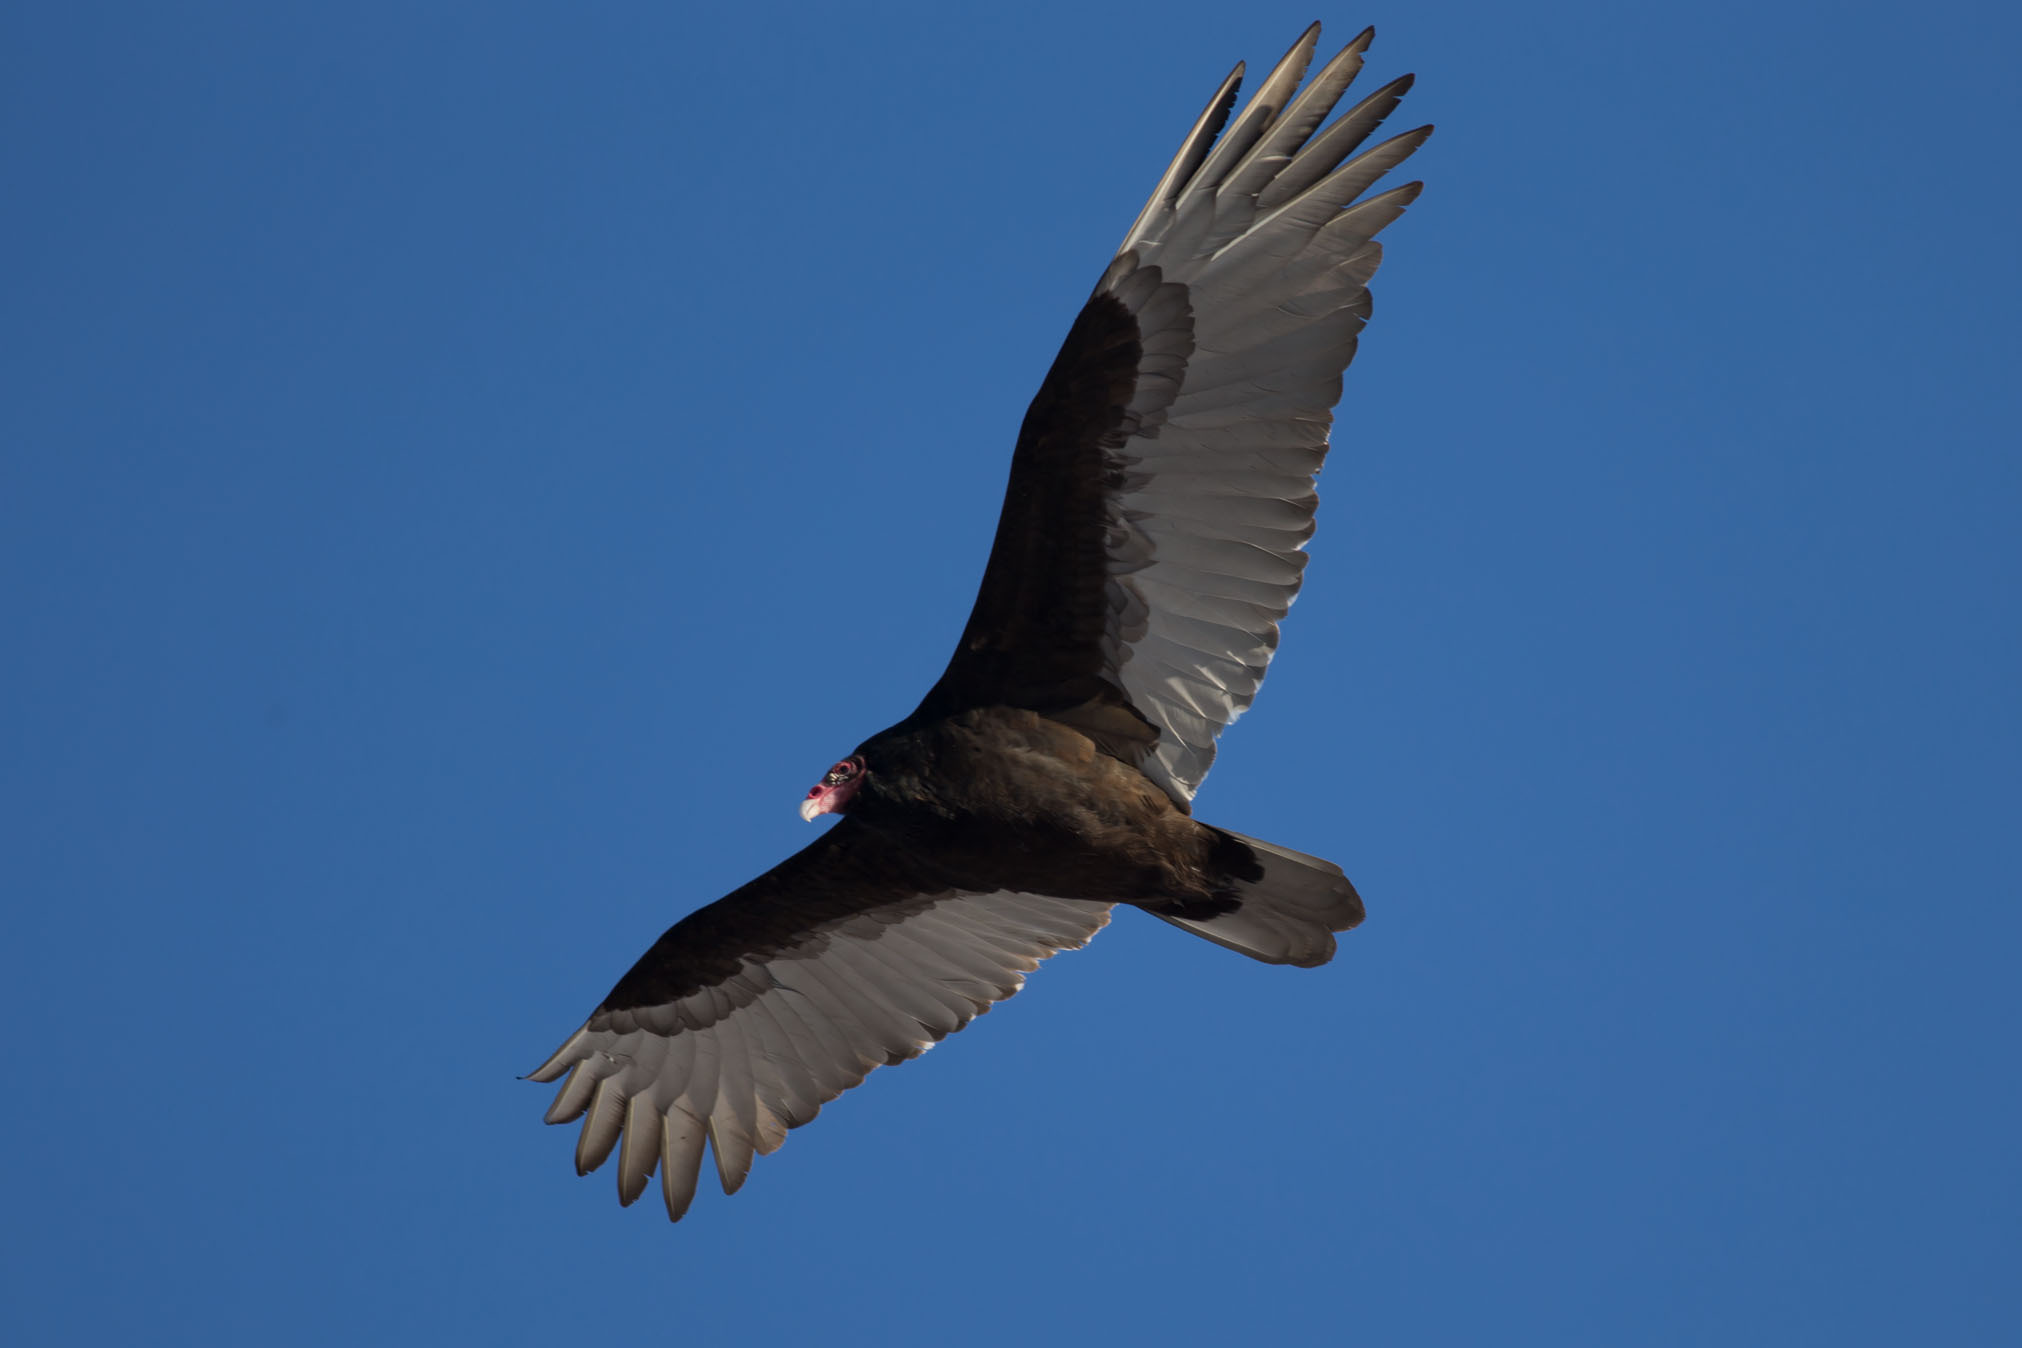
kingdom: Animalia
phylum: Chordata
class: Aves
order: Accipitriformes
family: Cathartidae
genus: Cathartes
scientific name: Cathartes aura
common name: Turkey vulture
